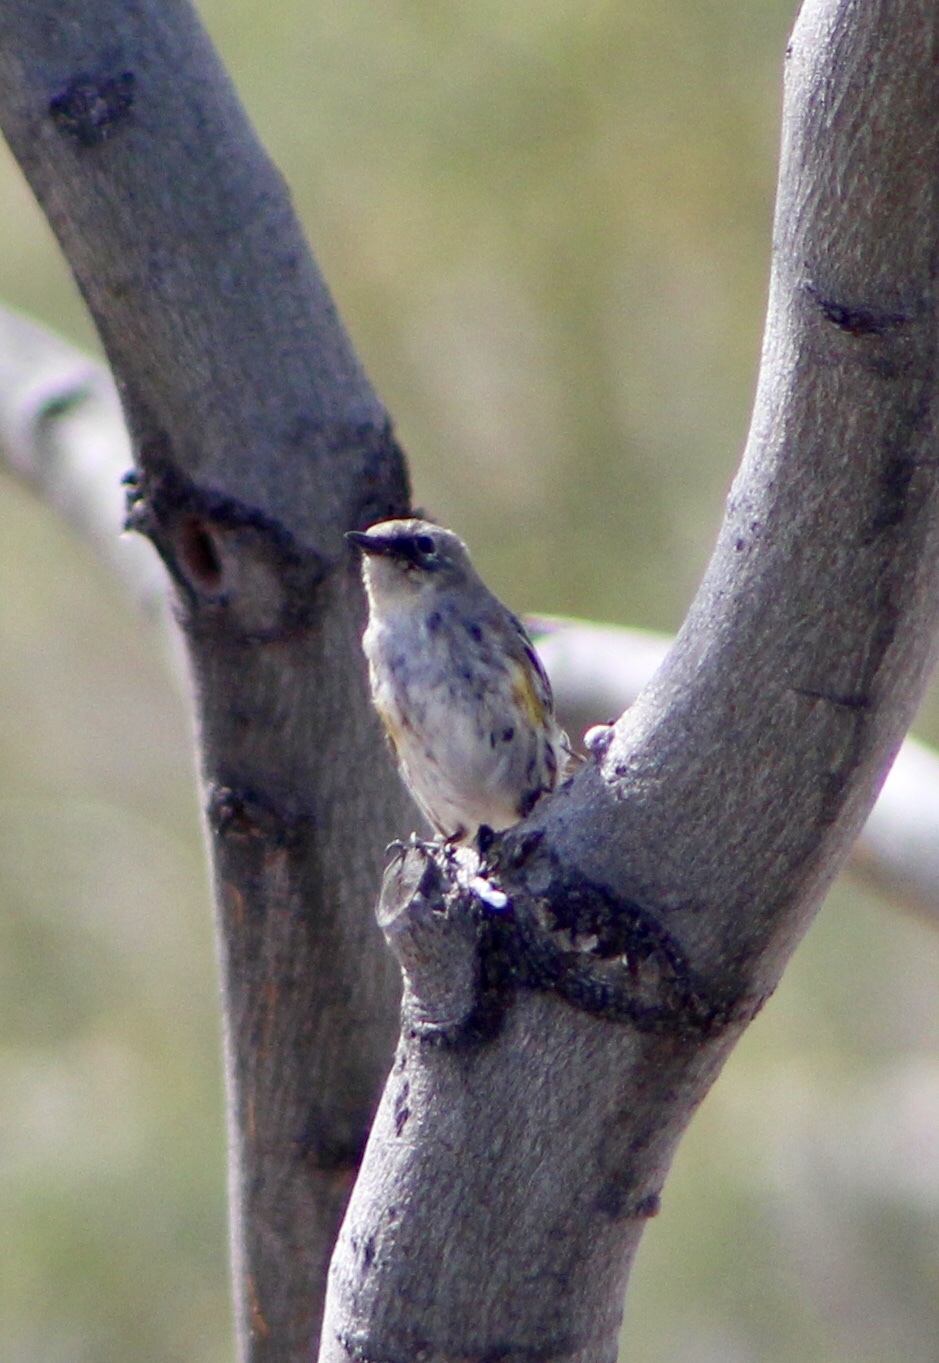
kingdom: Animalia
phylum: Chordata
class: Aves
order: Passeriformes
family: Parulidae
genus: Setophaga
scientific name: Setophaga coronata
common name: Myrtle warbler
